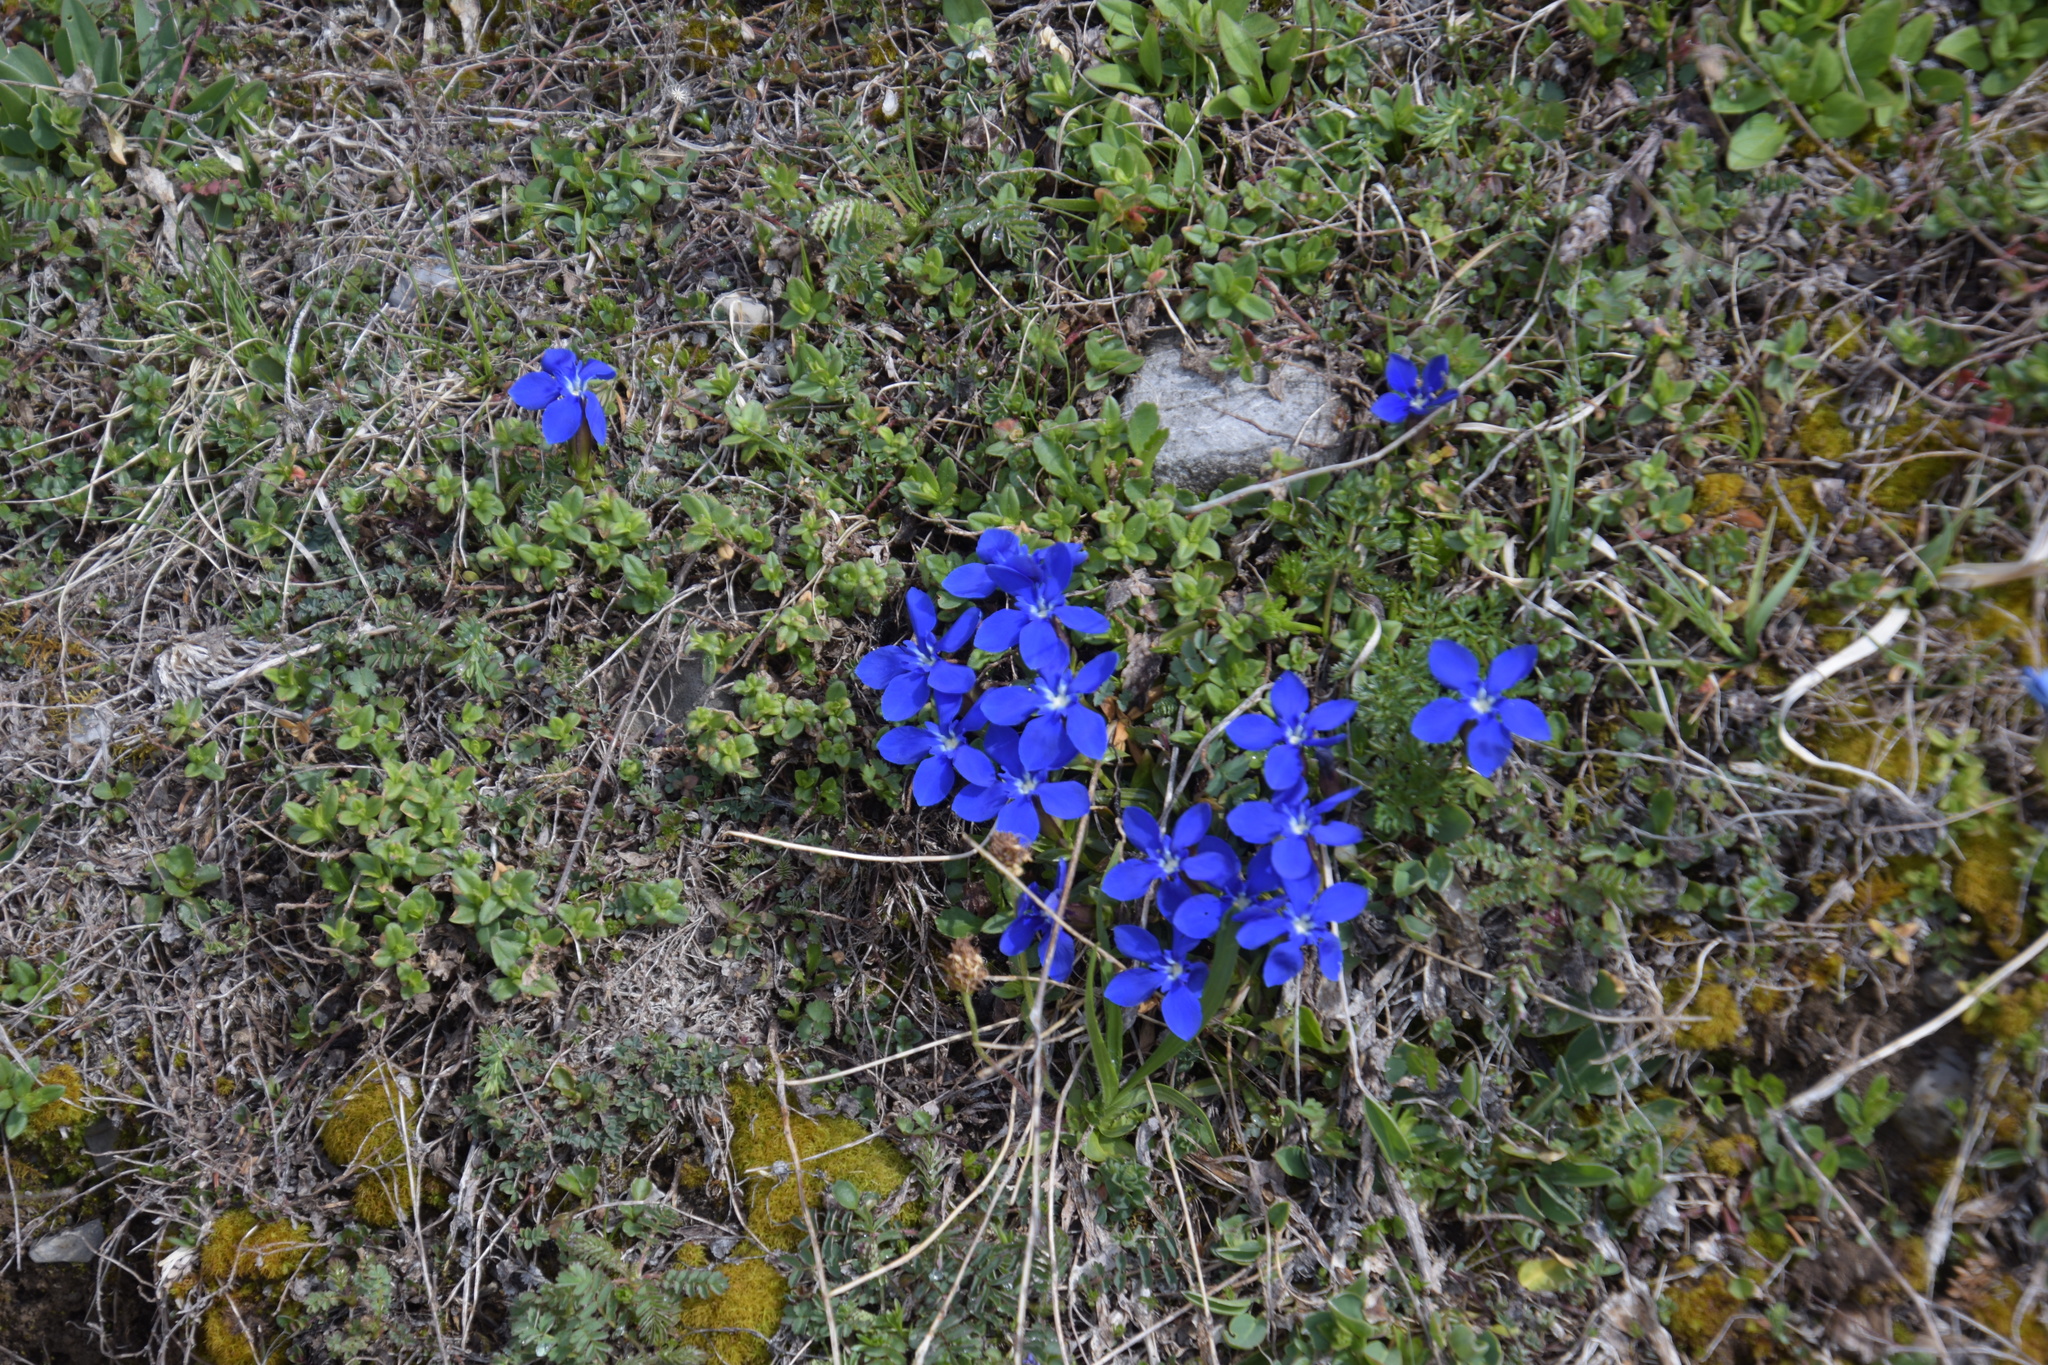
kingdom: Plantae
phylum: Tracheophyta
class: Magnoliopsida
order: Gentianales
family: Gentianaceae
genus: Gentiana
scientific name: Gentiana verna
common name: Spring gentian
